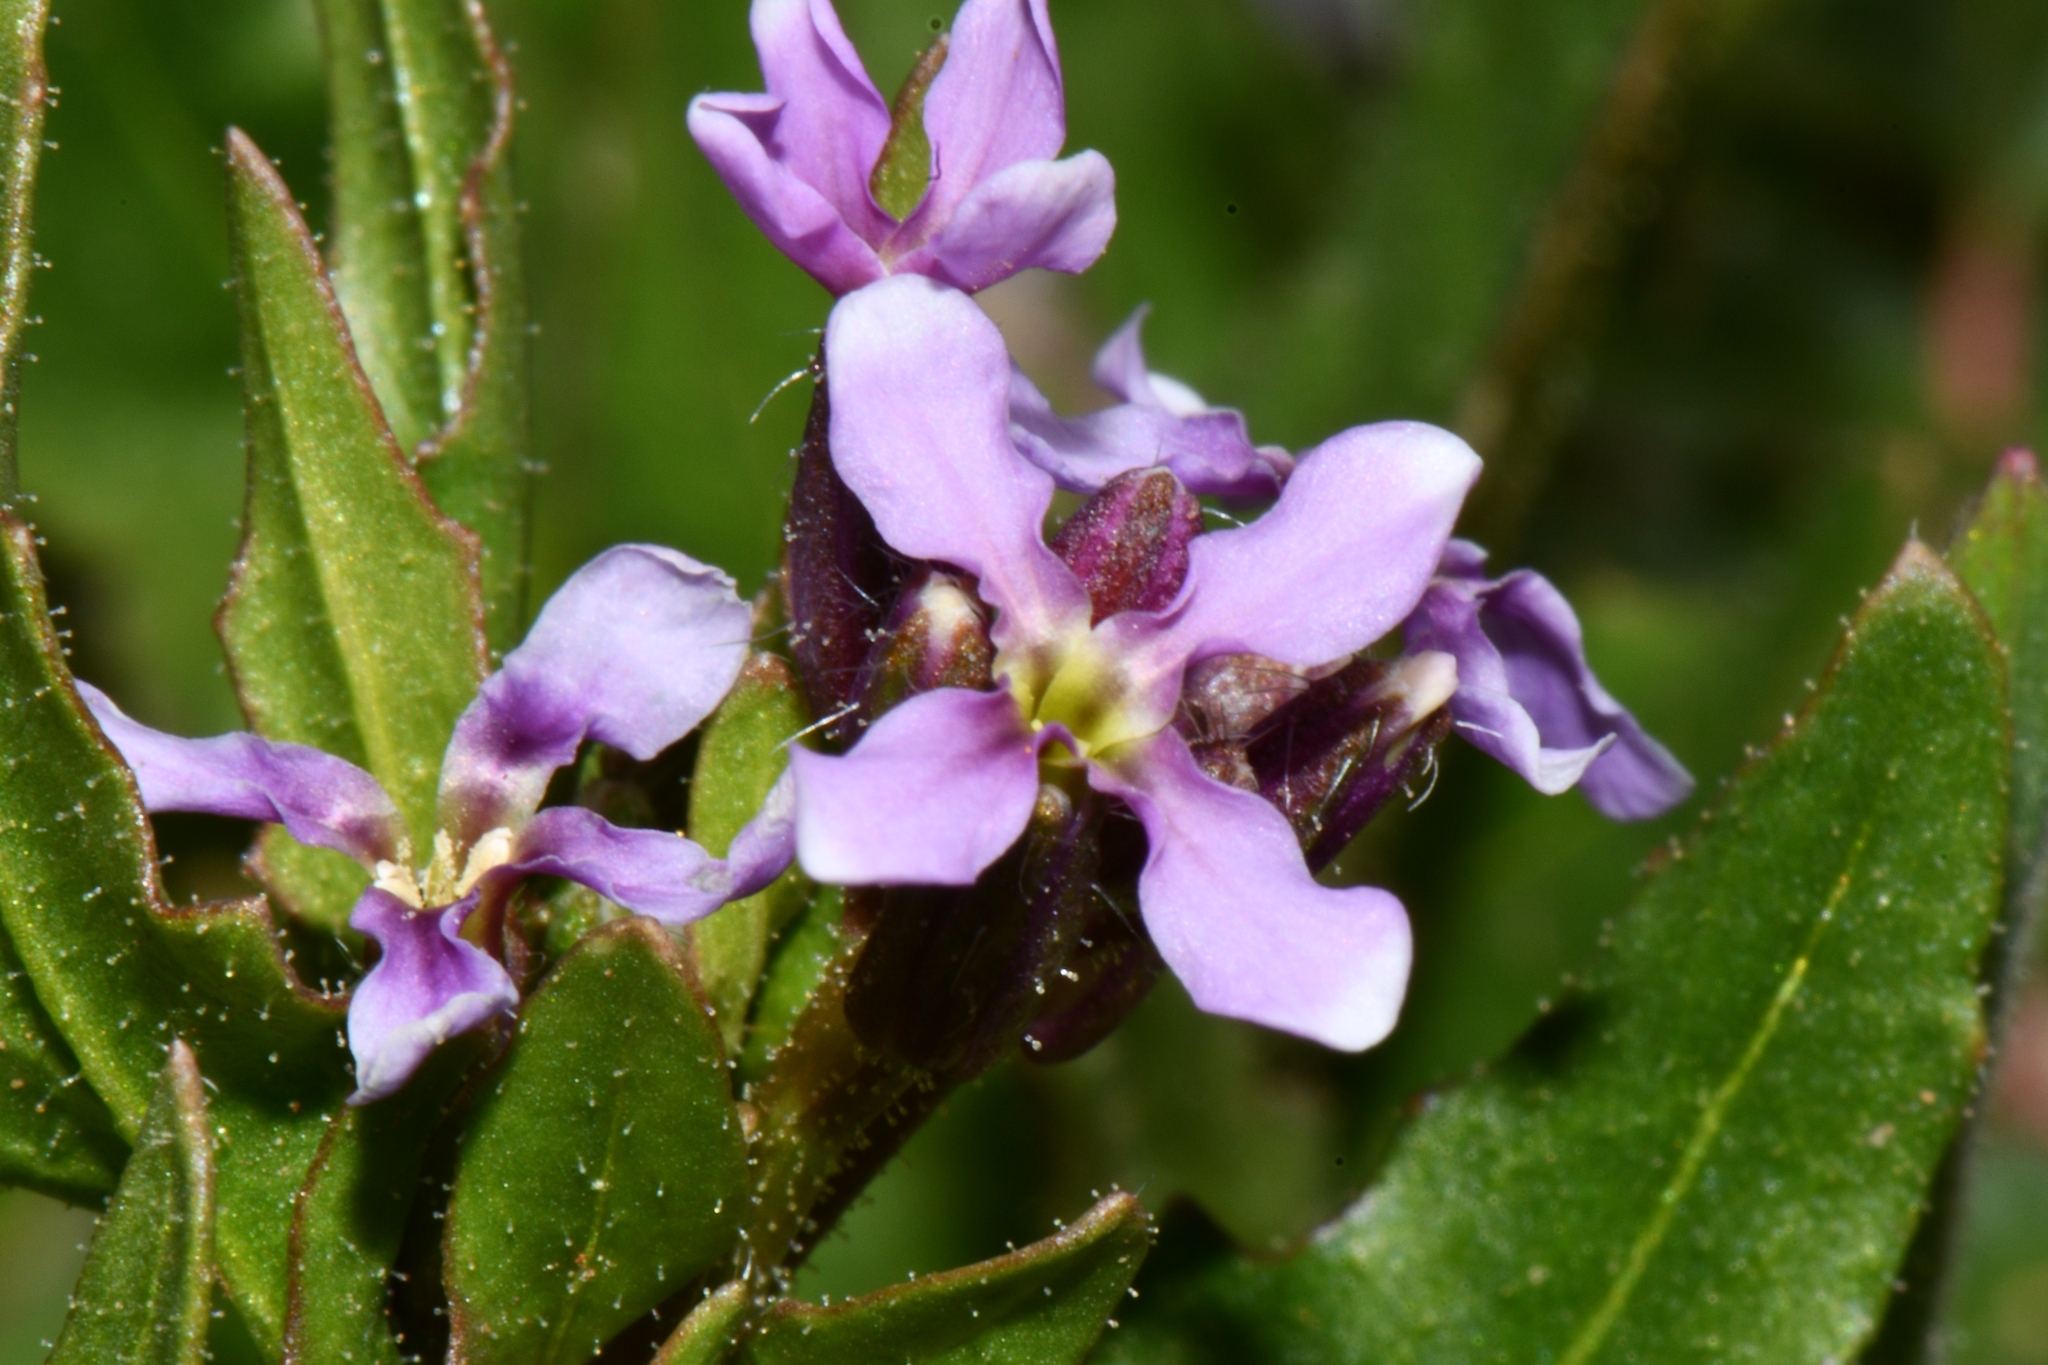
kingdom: Plantae
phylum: Tracheophyta
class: Magnoliopsida
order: Brassicales
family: Brassicaceae
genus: Chorispora
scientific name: Chorispora tenella
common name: Crossflower
